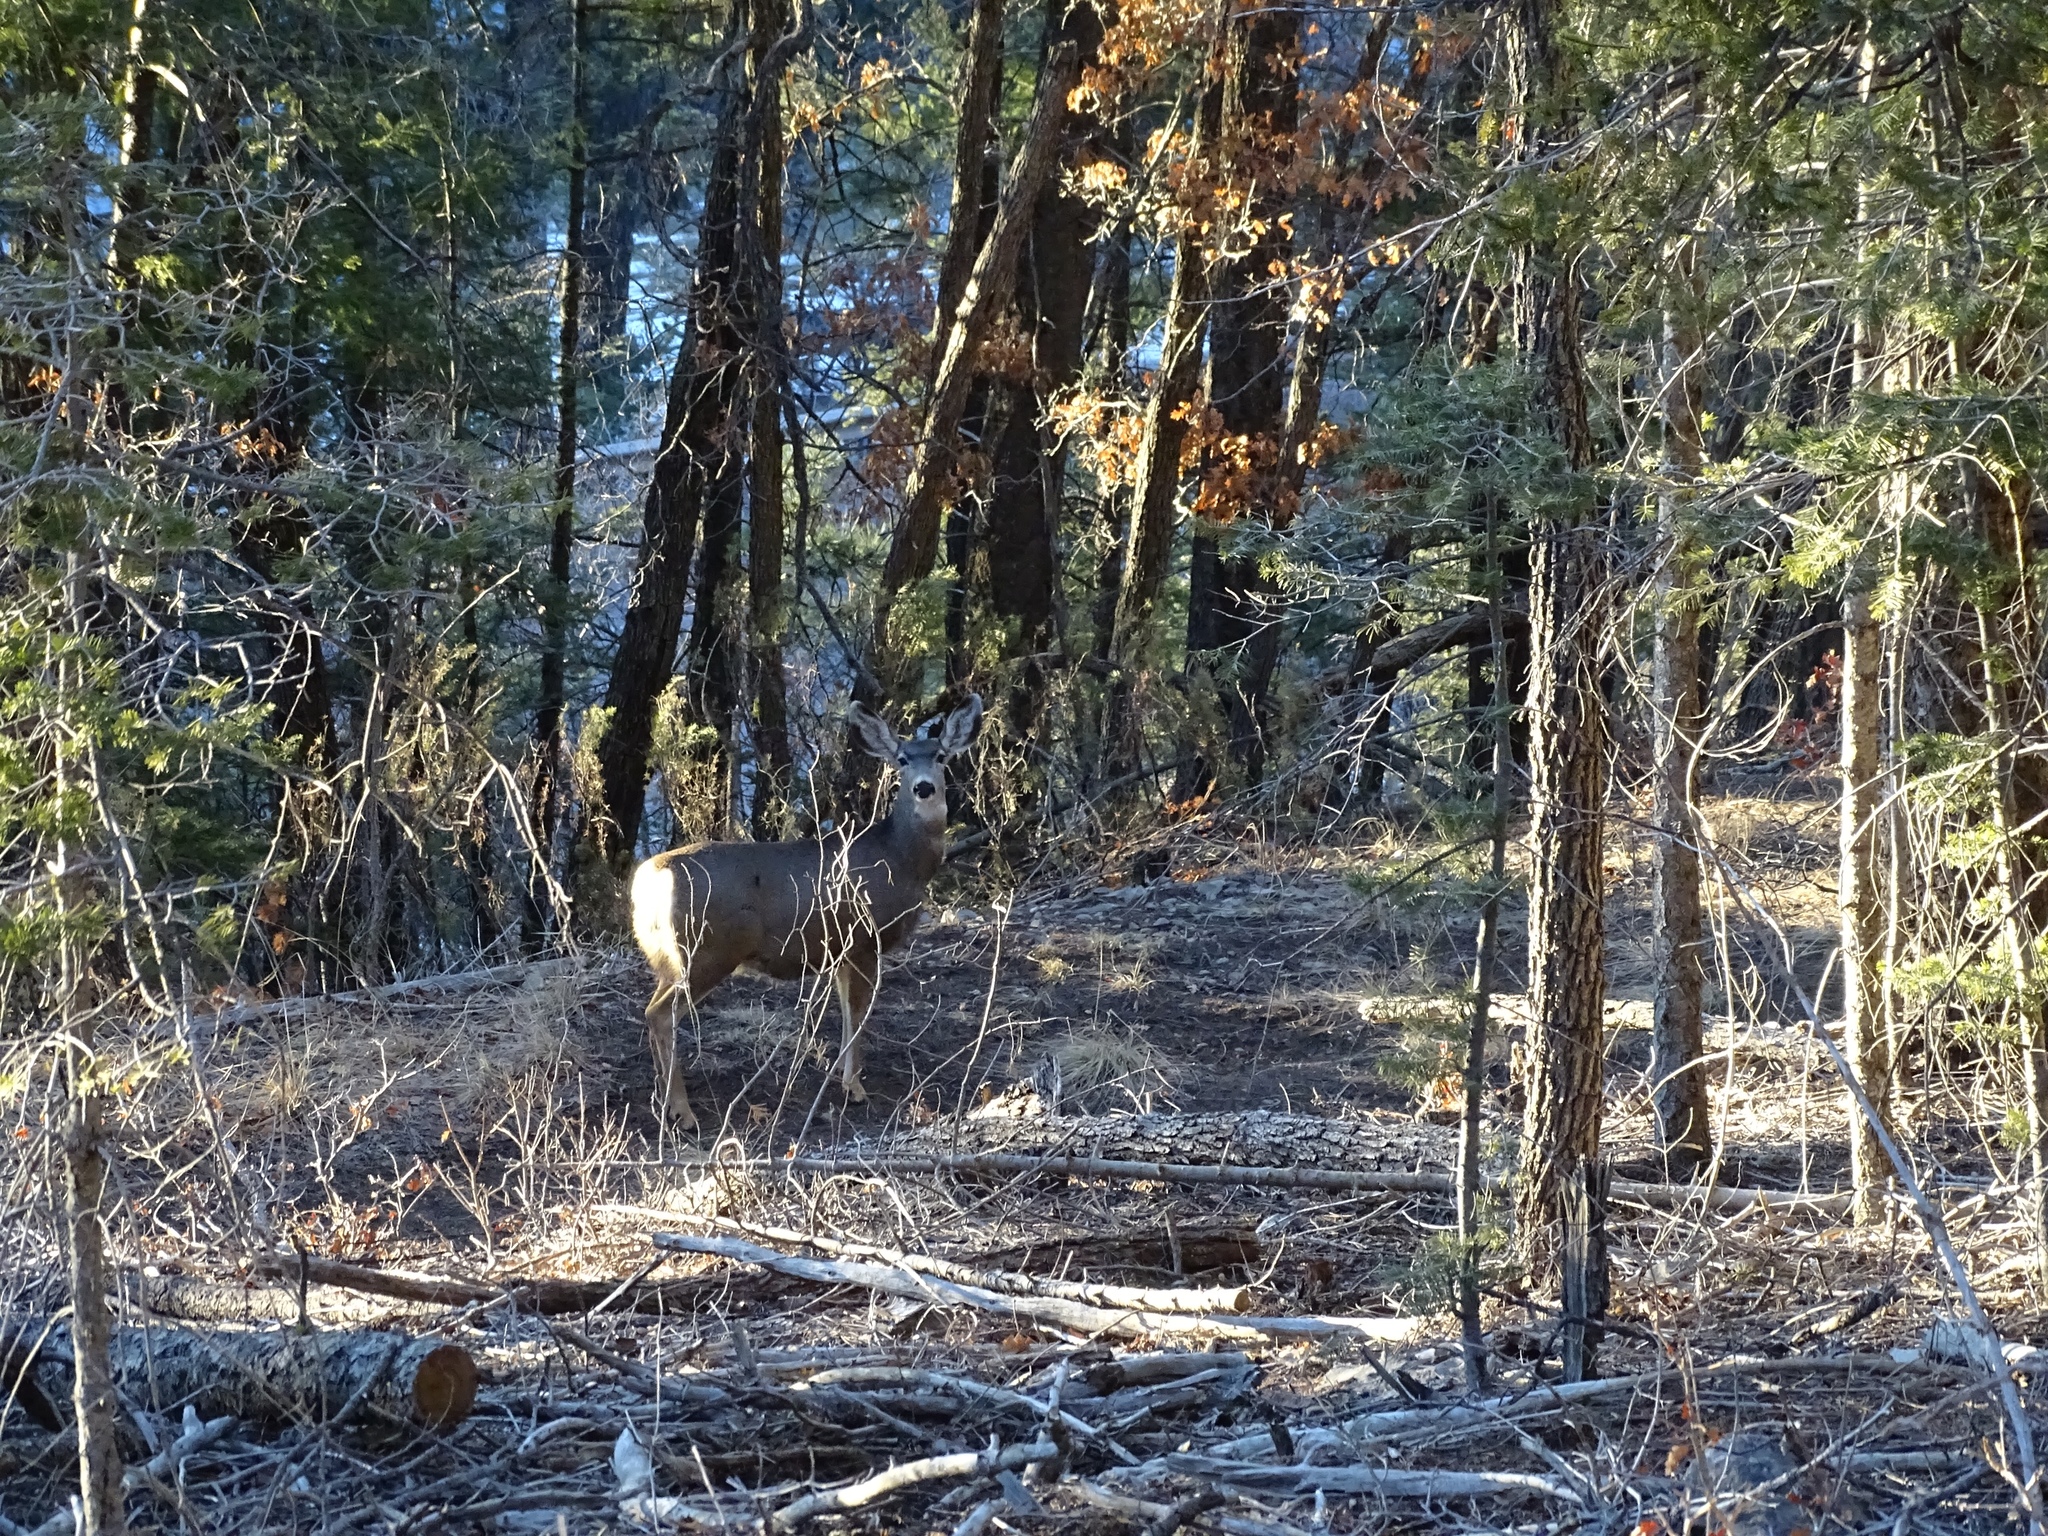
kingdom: Animalia
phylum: Chordata
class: Mammalia
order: Artiodactyla
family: Cervidae
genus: Odocoileus
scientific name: Odocoileus hemionus
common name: Mule deer
